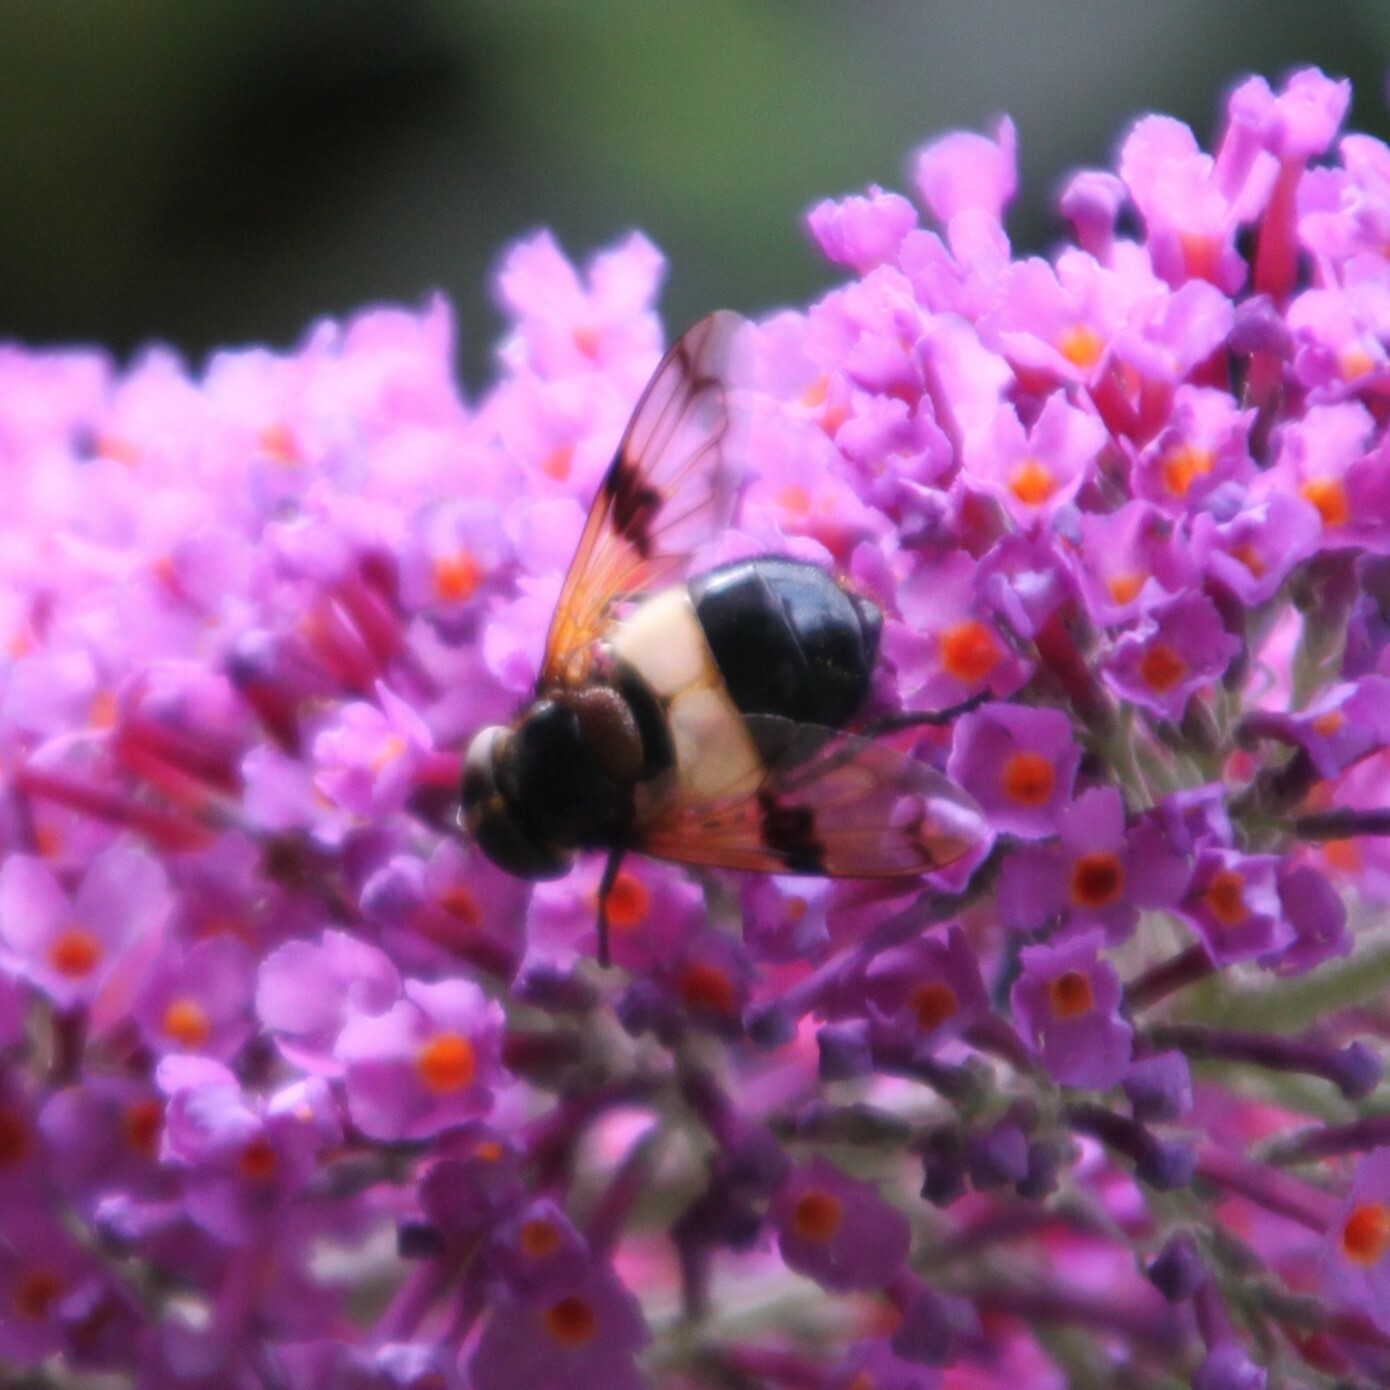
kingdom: Animalia
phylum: Arthropoda
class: Insecta
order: Diptera
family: Syrphidae
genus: Volucella
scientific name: Volucella pellucens
